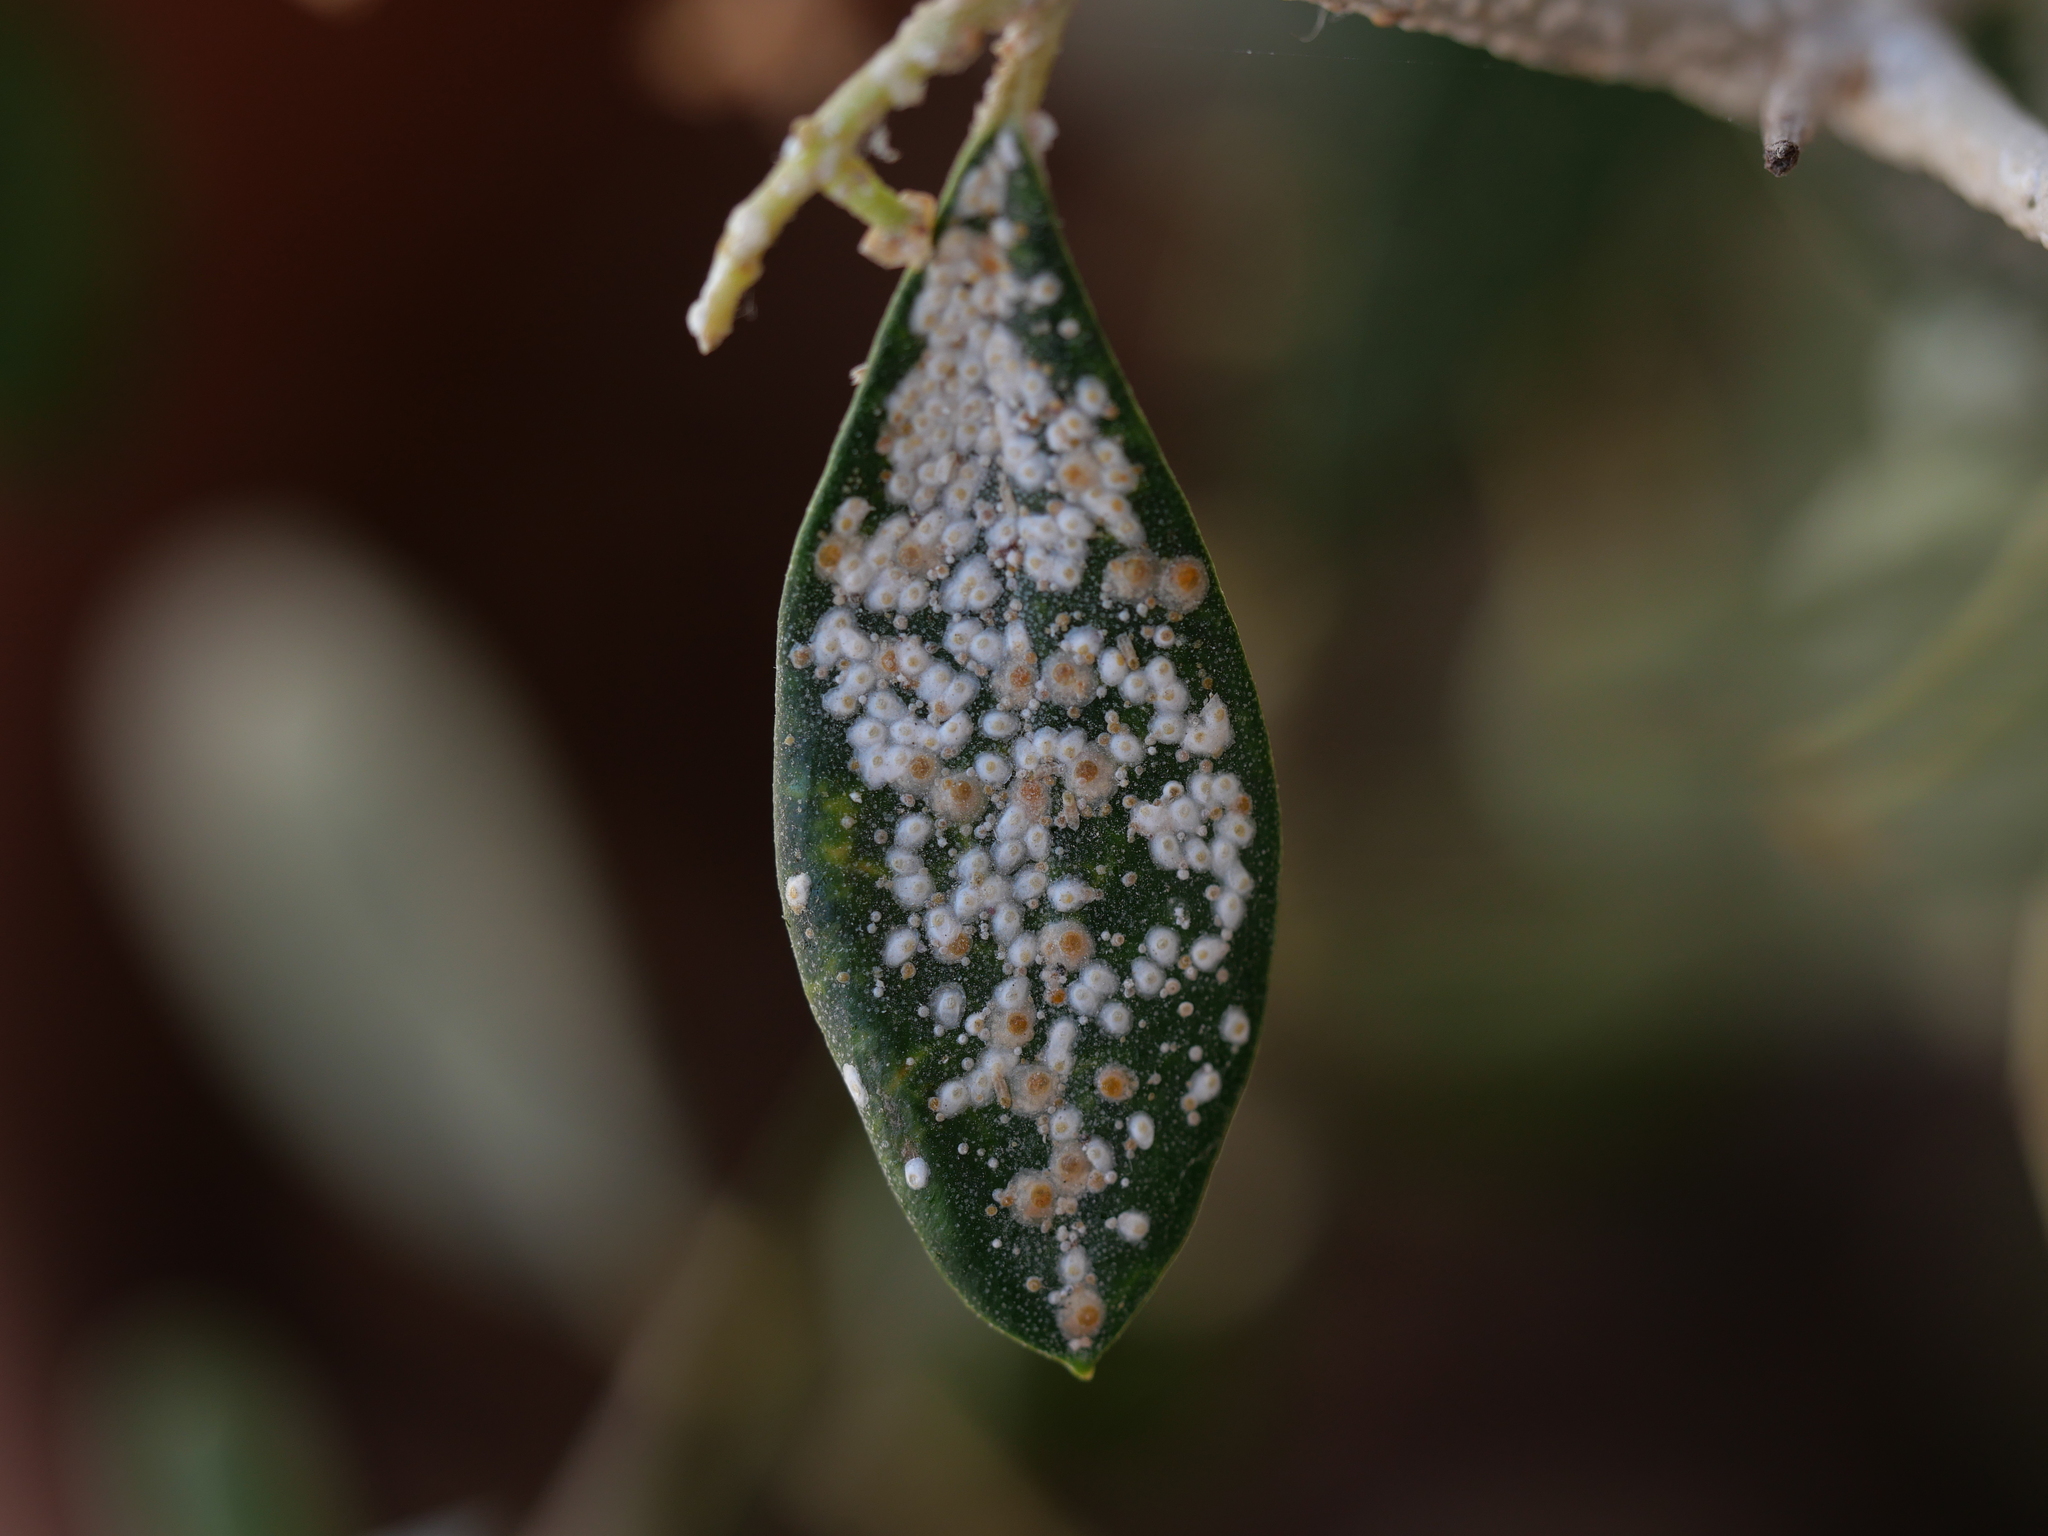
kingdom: Animalia
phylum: Arthropoda
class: Insecta
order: Hemiptera
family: Diaspididae
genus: Aspidiotus
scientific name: Aspidiotus nerii
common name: Oleander scale
